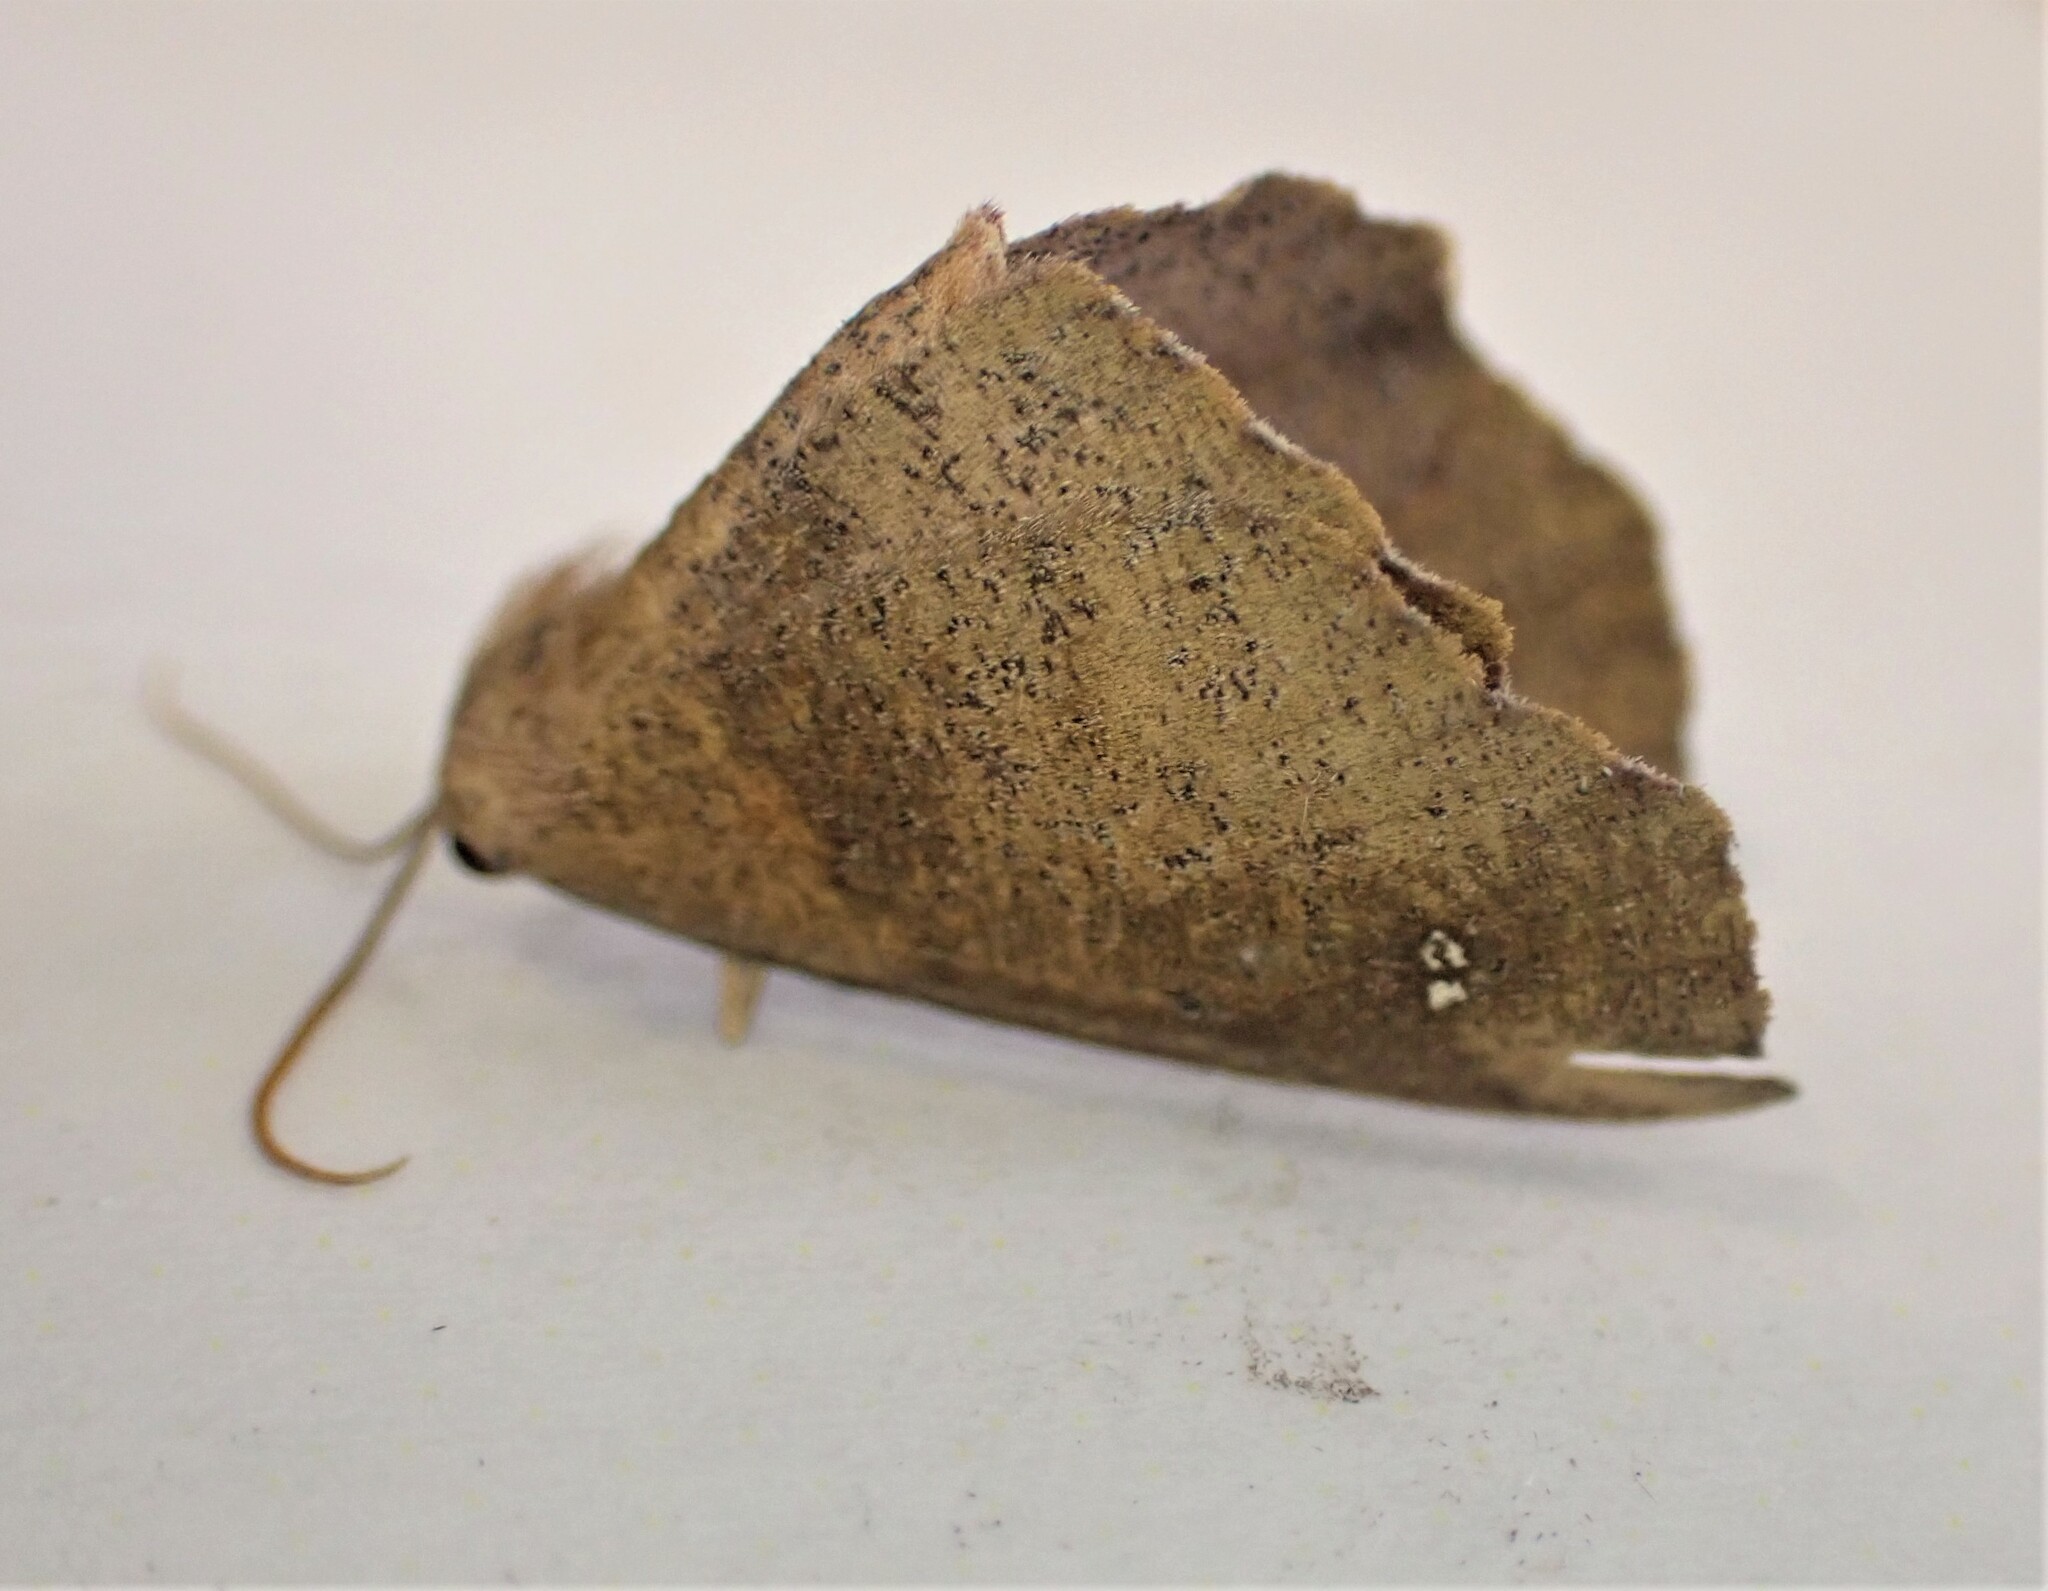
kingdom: Animalia
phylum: Arthropoda
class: Insecta
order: Lepidoptera
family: Geometridae
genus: Xyridacma
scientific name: Xyridacma ustaria
